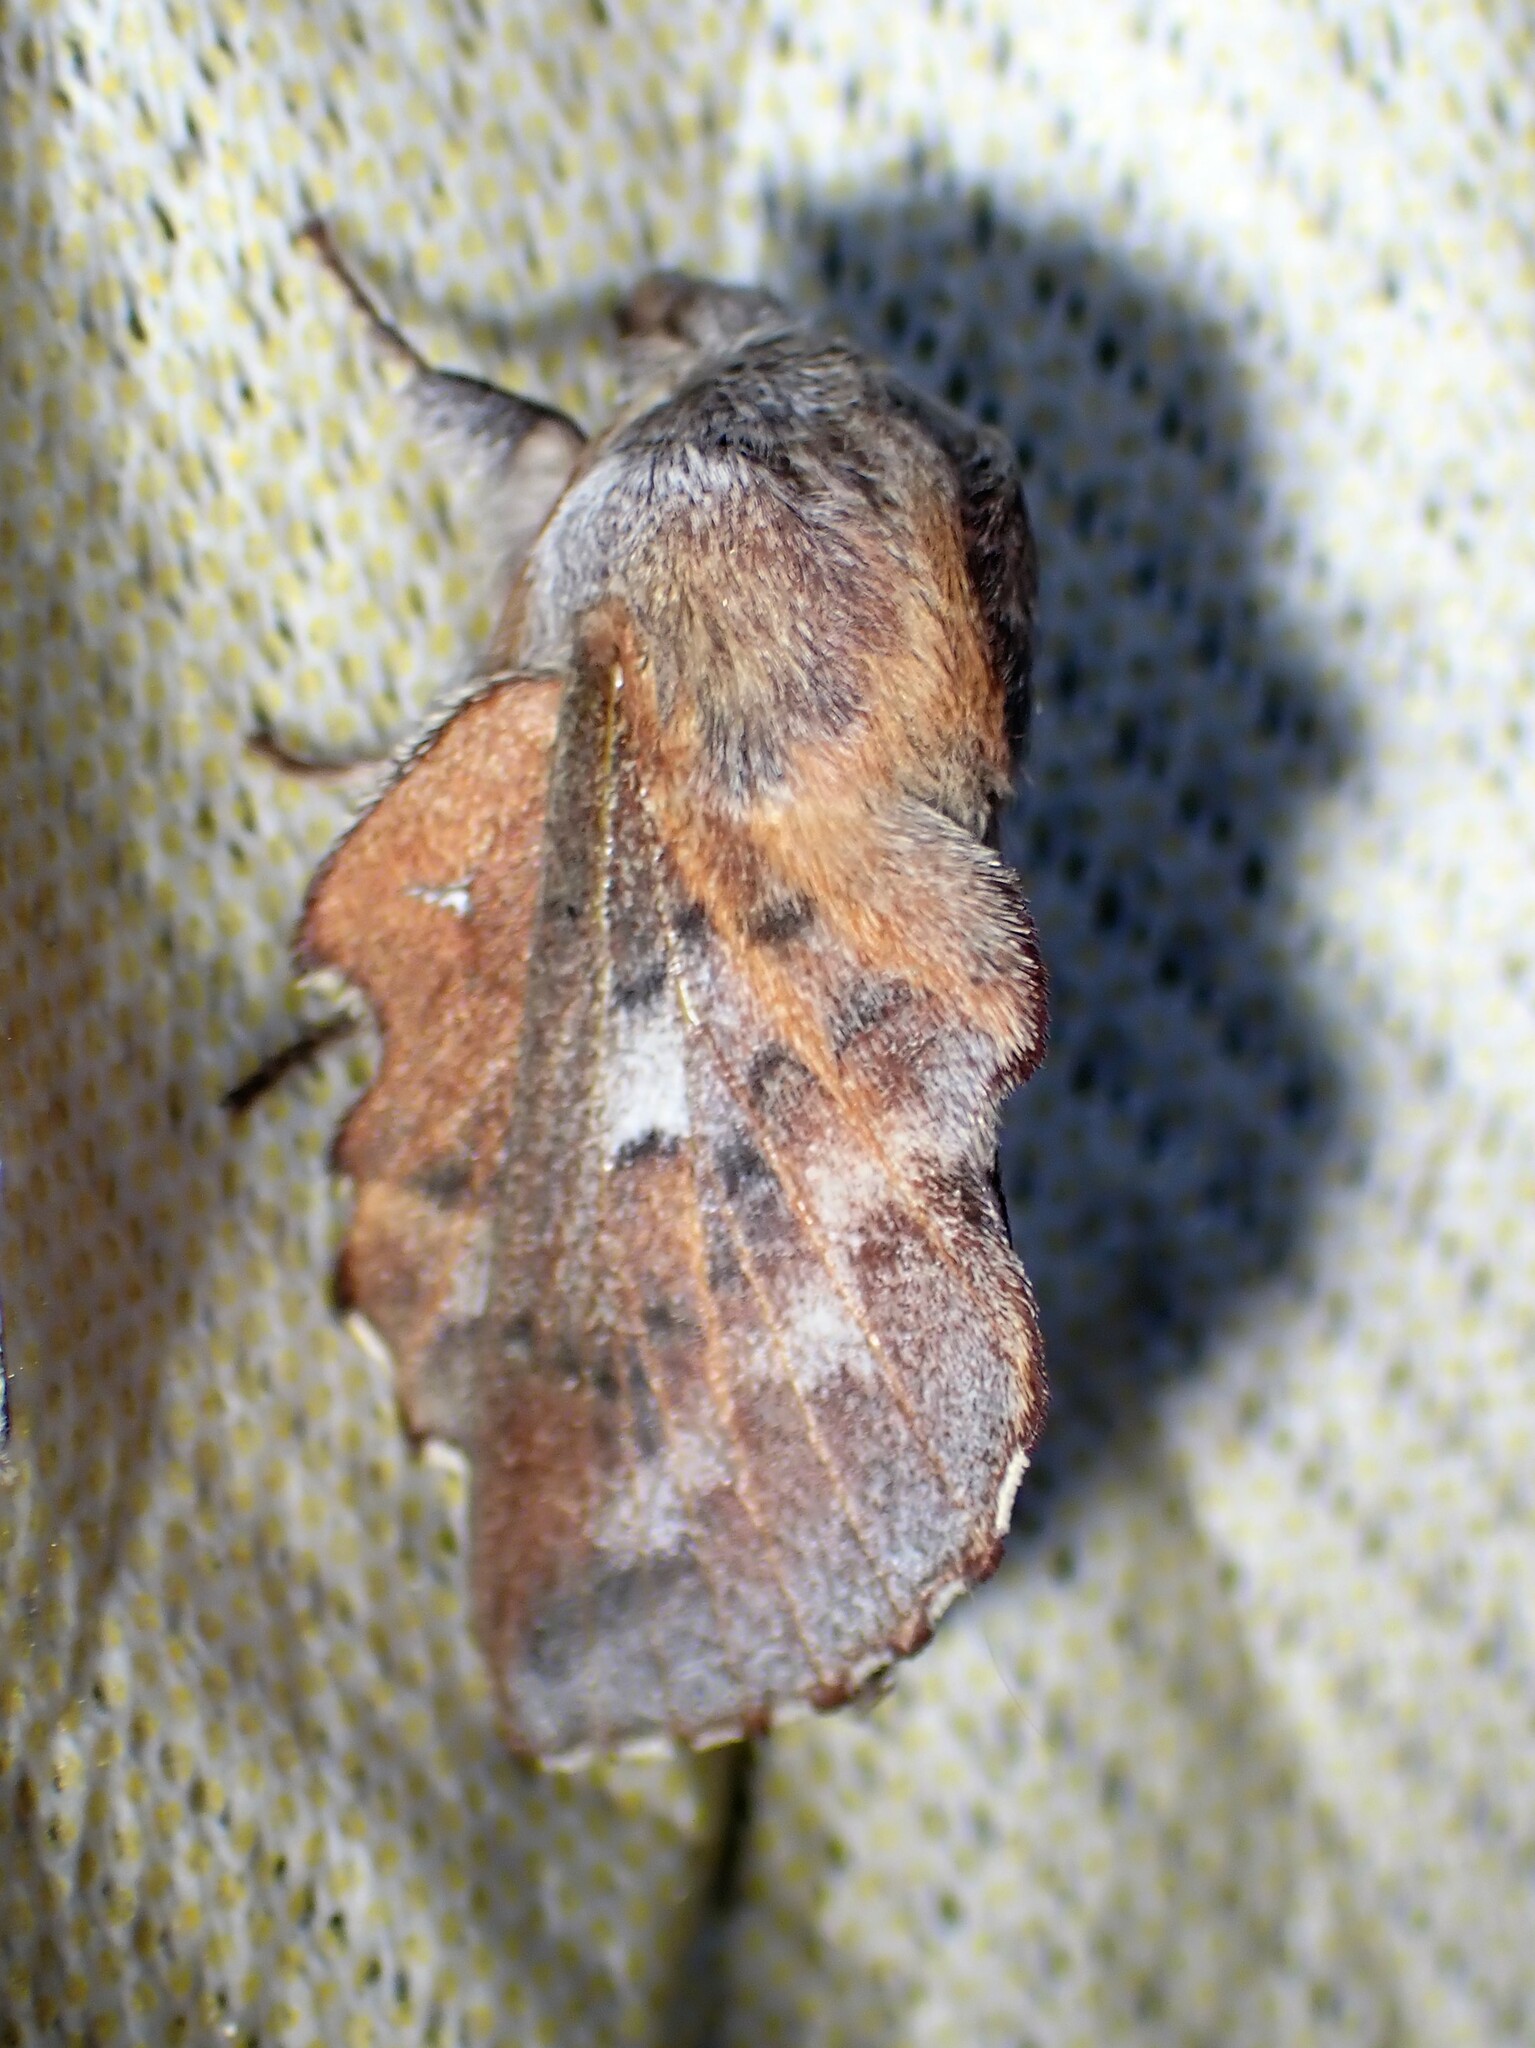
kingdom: Animalia
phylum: Arthropoda
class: Insecta
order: Lepidoptera
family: Lasiocampidae
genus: Phyllodesma
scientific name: Phyllodesma americana
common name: American lappet moth
